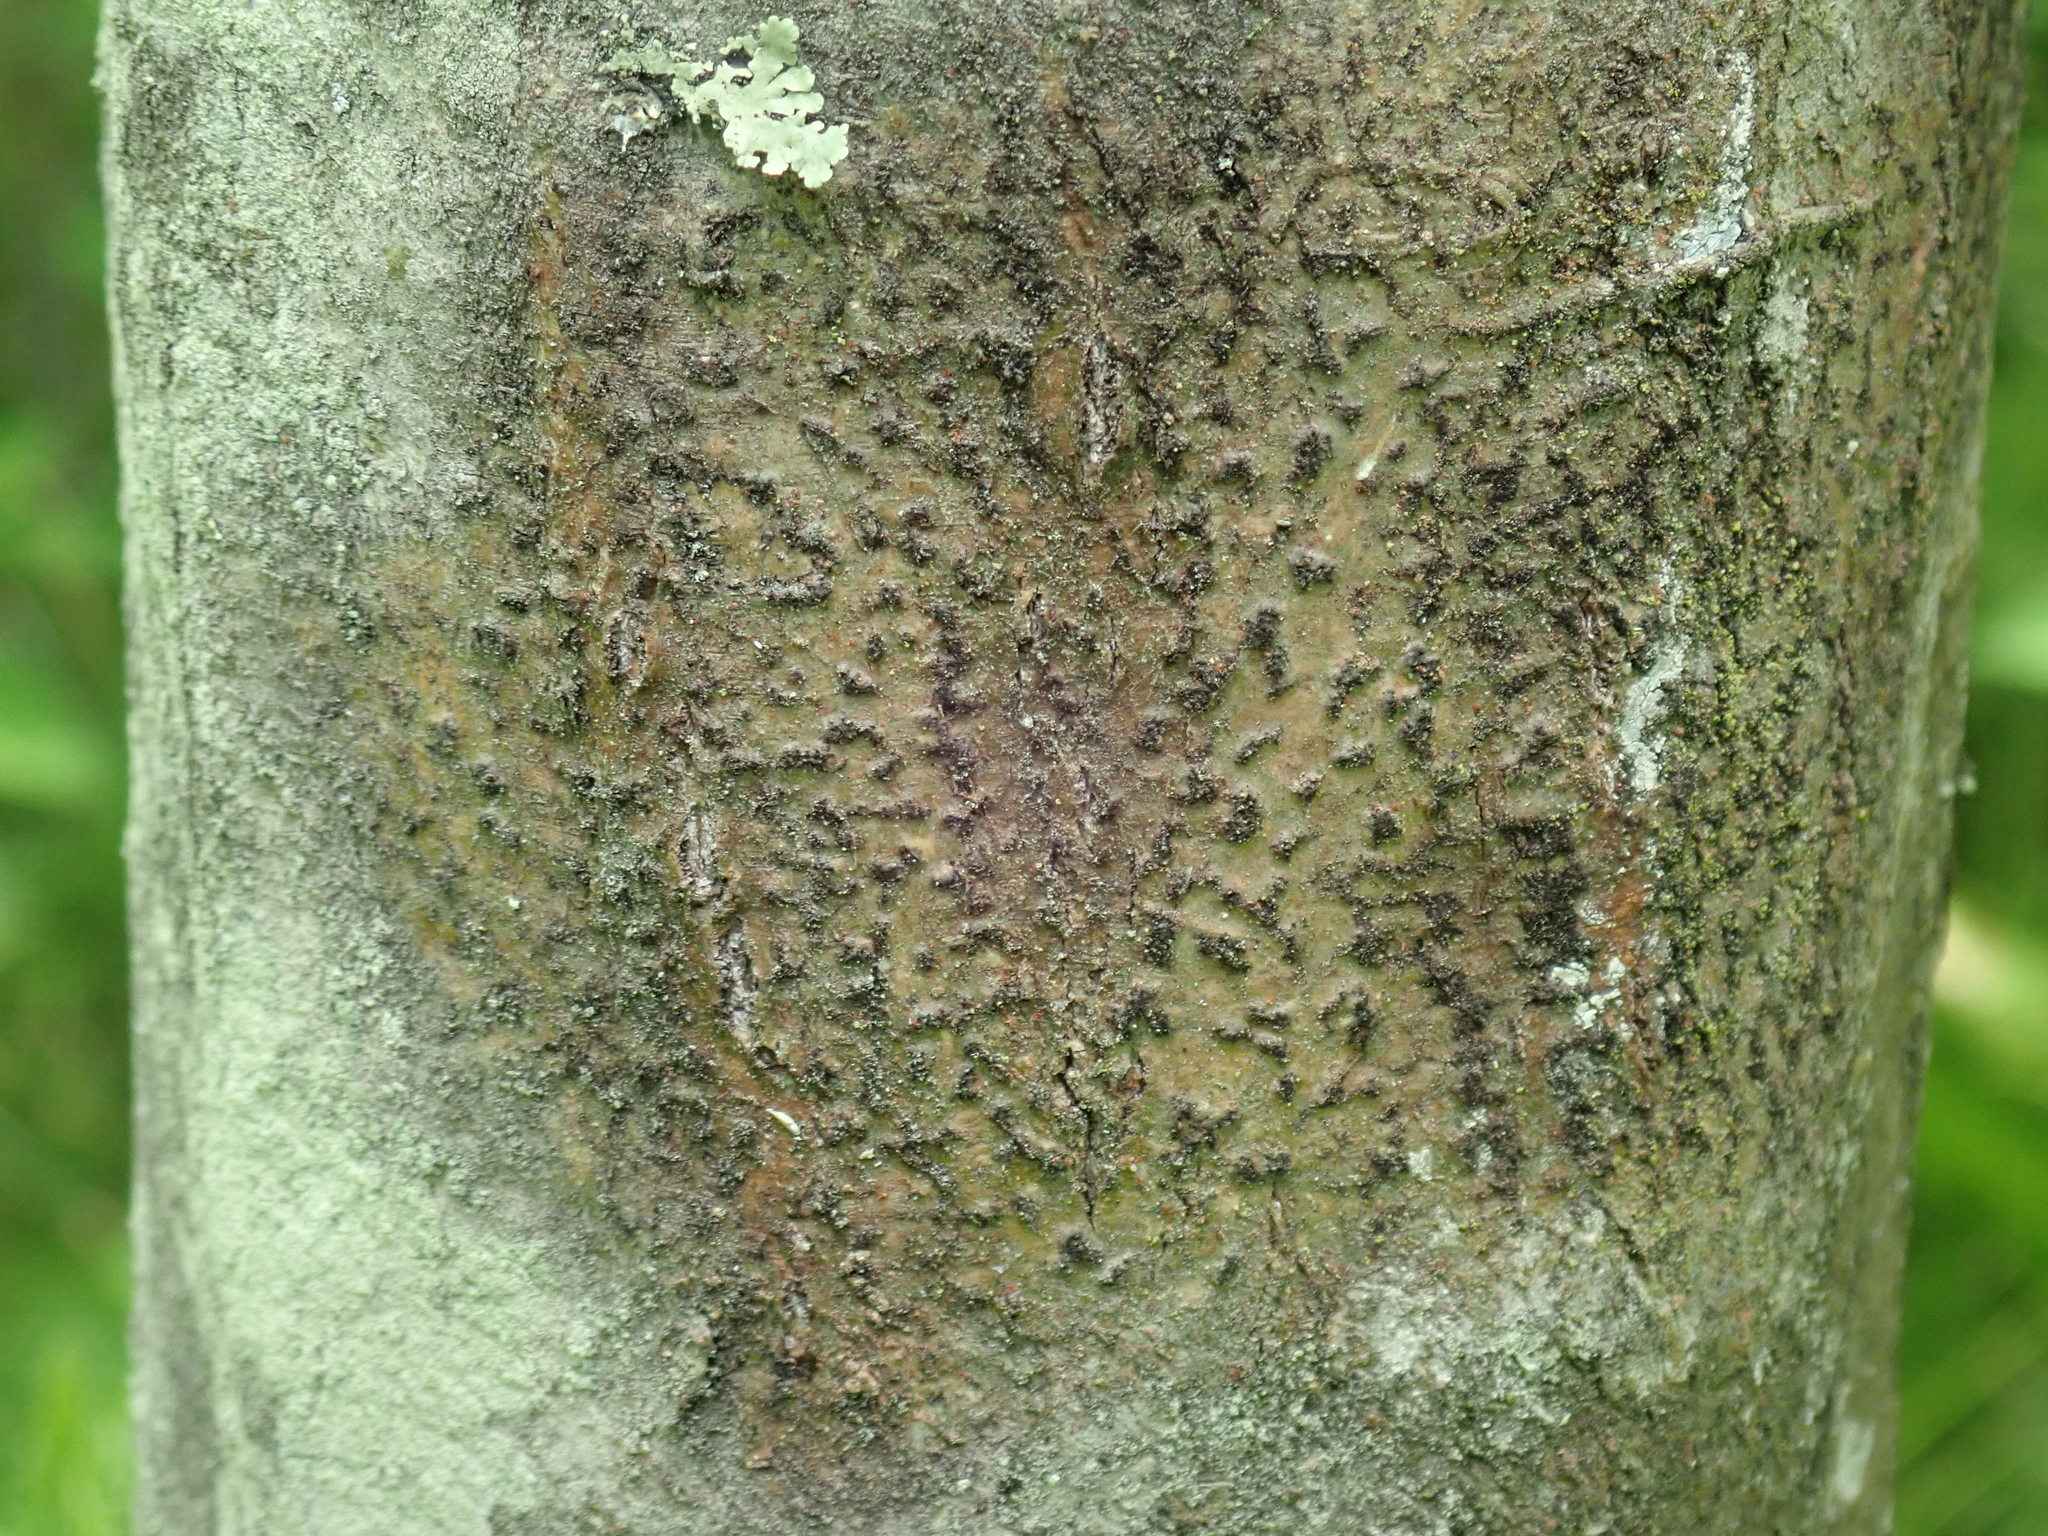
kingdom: Fungi
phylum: Ascomycota
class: Dothideomycetes
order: Trypetheliales
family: Trypetheliaceae
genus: Viridothelium
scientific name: Viridothelium virens
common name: Speckled blister lichen
